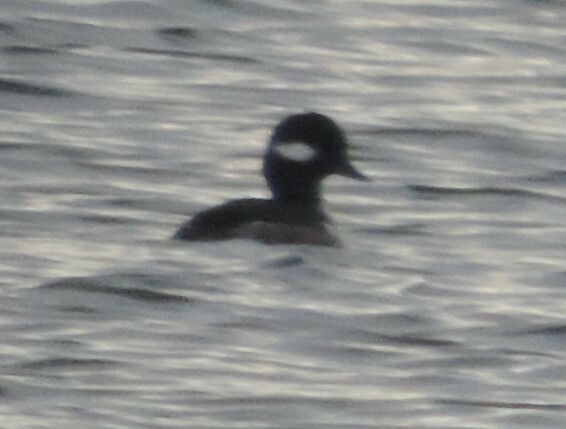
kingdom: Animalia
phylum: Chordata
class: Aves
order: Anseriformes
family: Anatidae
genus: Bucephala
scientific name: Bucephala albeola
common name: Bufflehead
